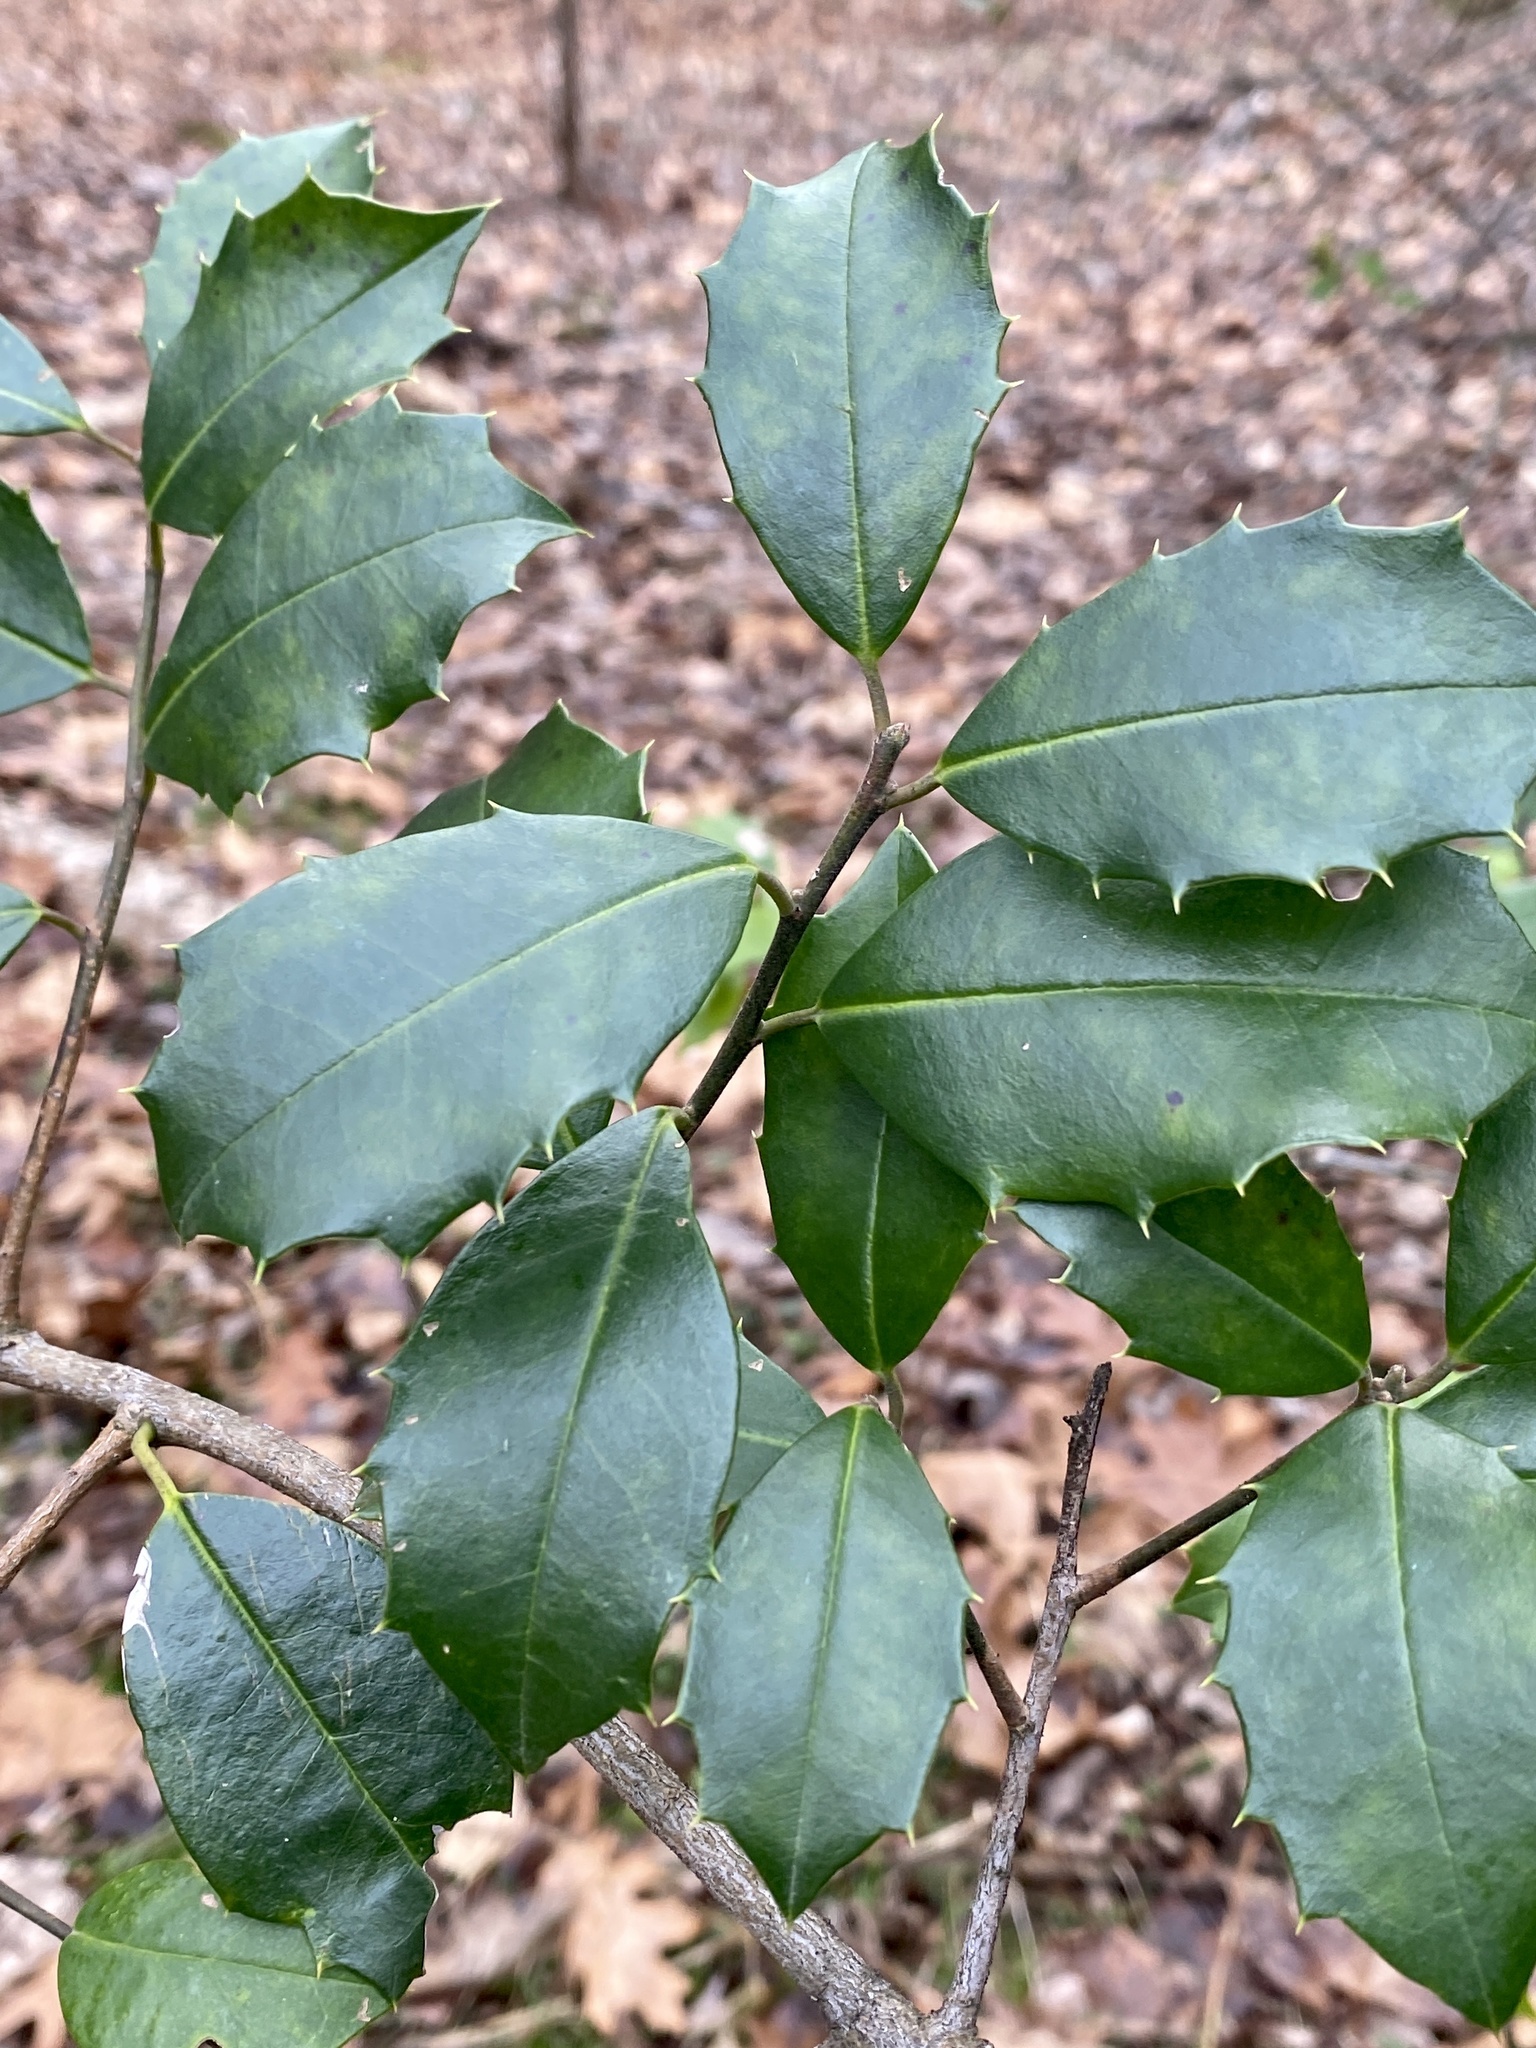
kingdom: Plantae
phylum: Tracheophyta
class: Magnoliopsida
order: Aquifoliales
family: Aquifoliaceae
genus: Ilex
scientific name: Ilex opaca
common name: American holly
